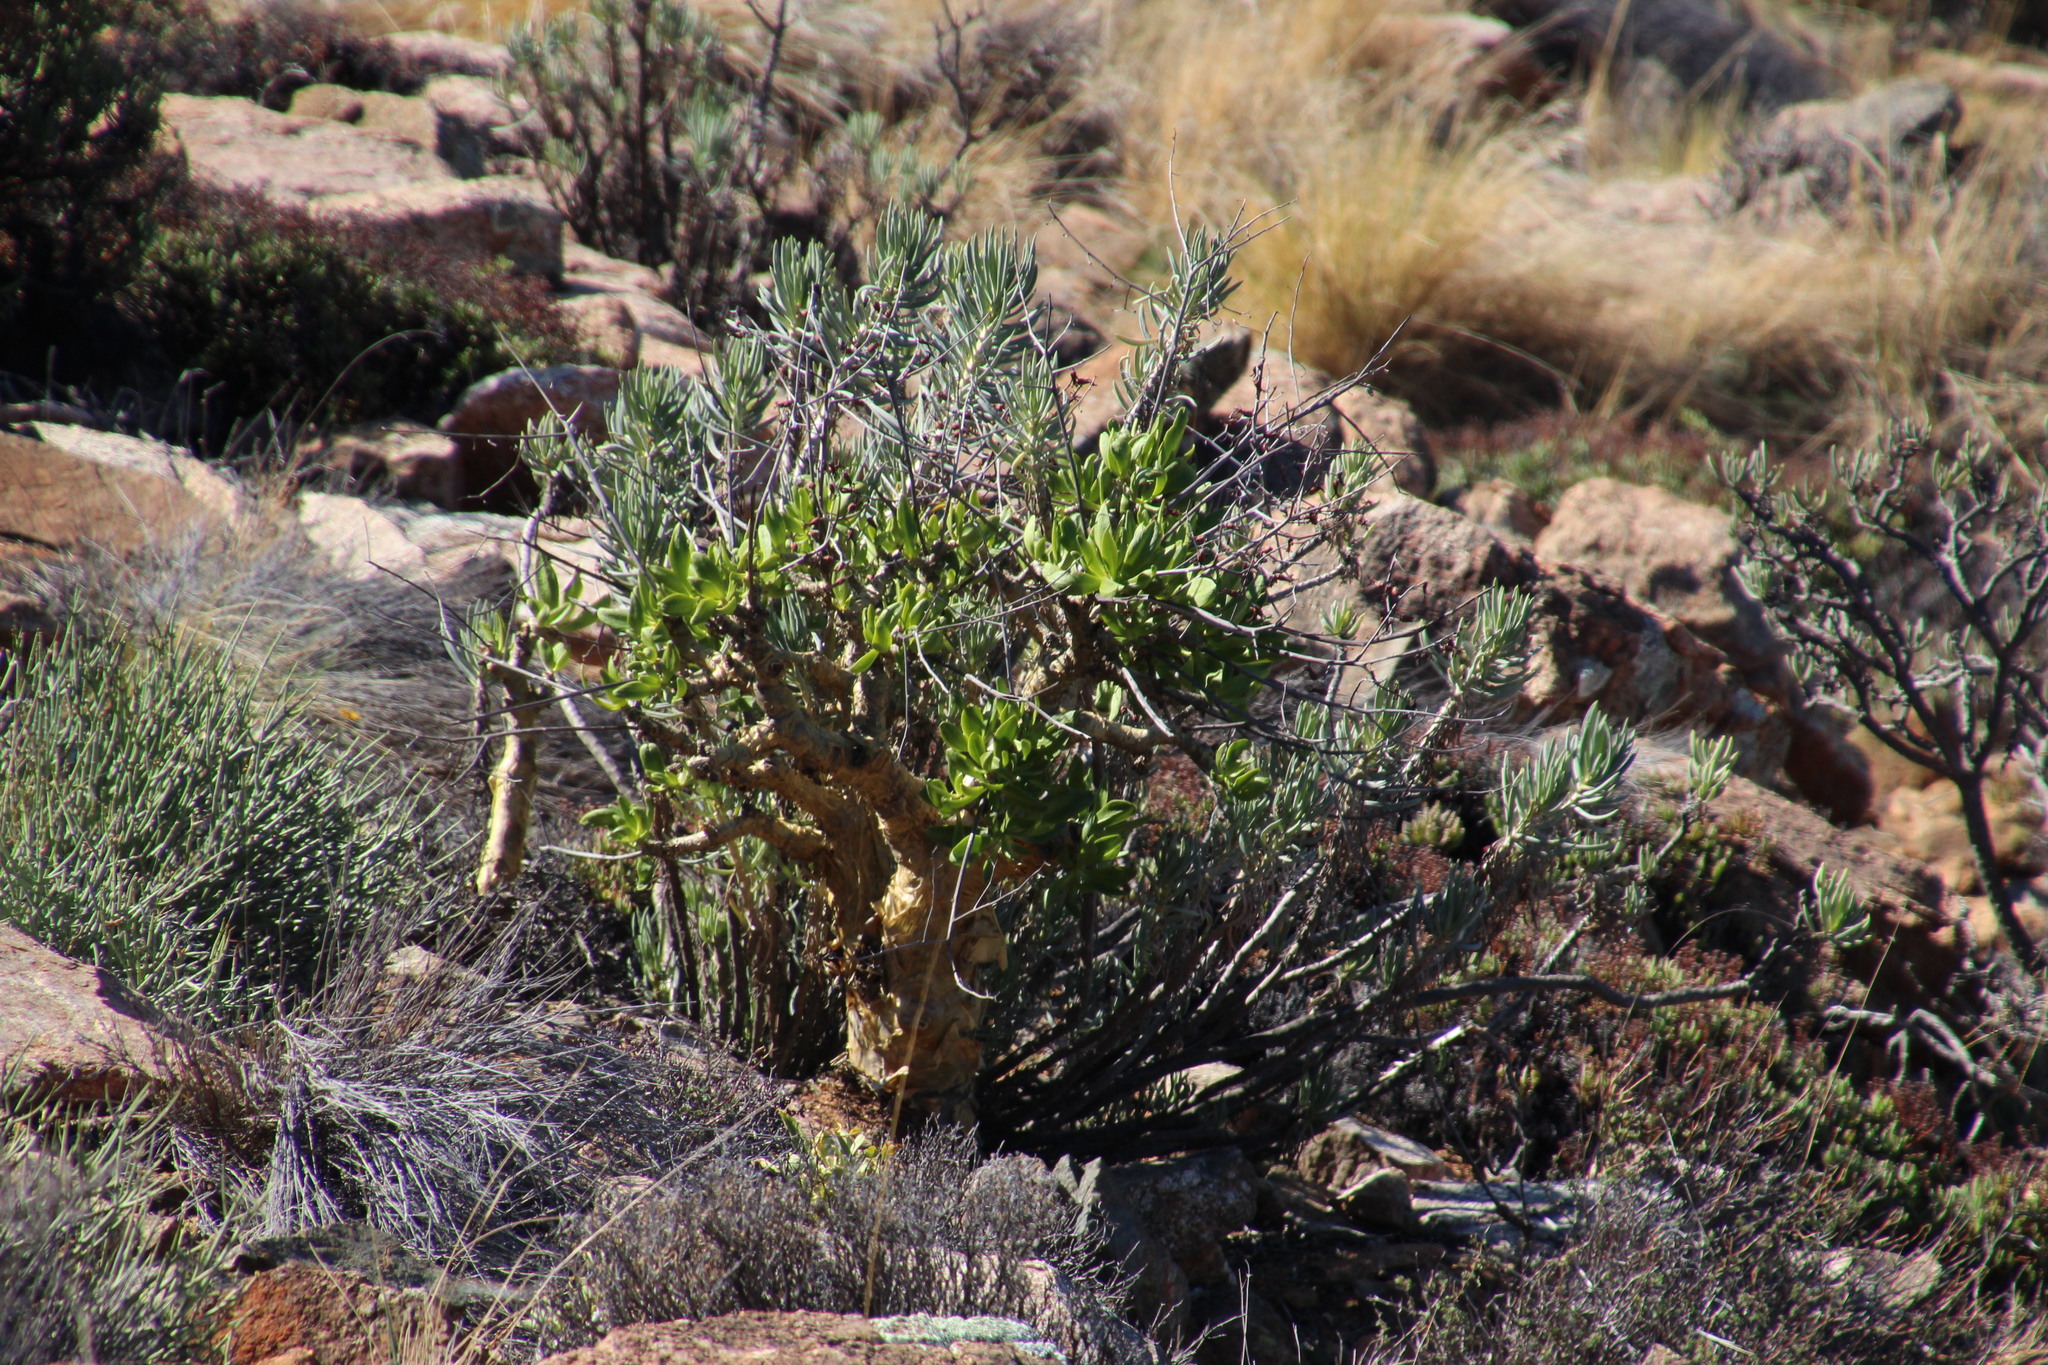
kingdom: Plantae
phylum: Tracheophyta
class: Magnoliopsida
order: Saxifragales
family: Crassulaceae
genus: Tylecodon
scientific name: Tylecodon paniculatus
